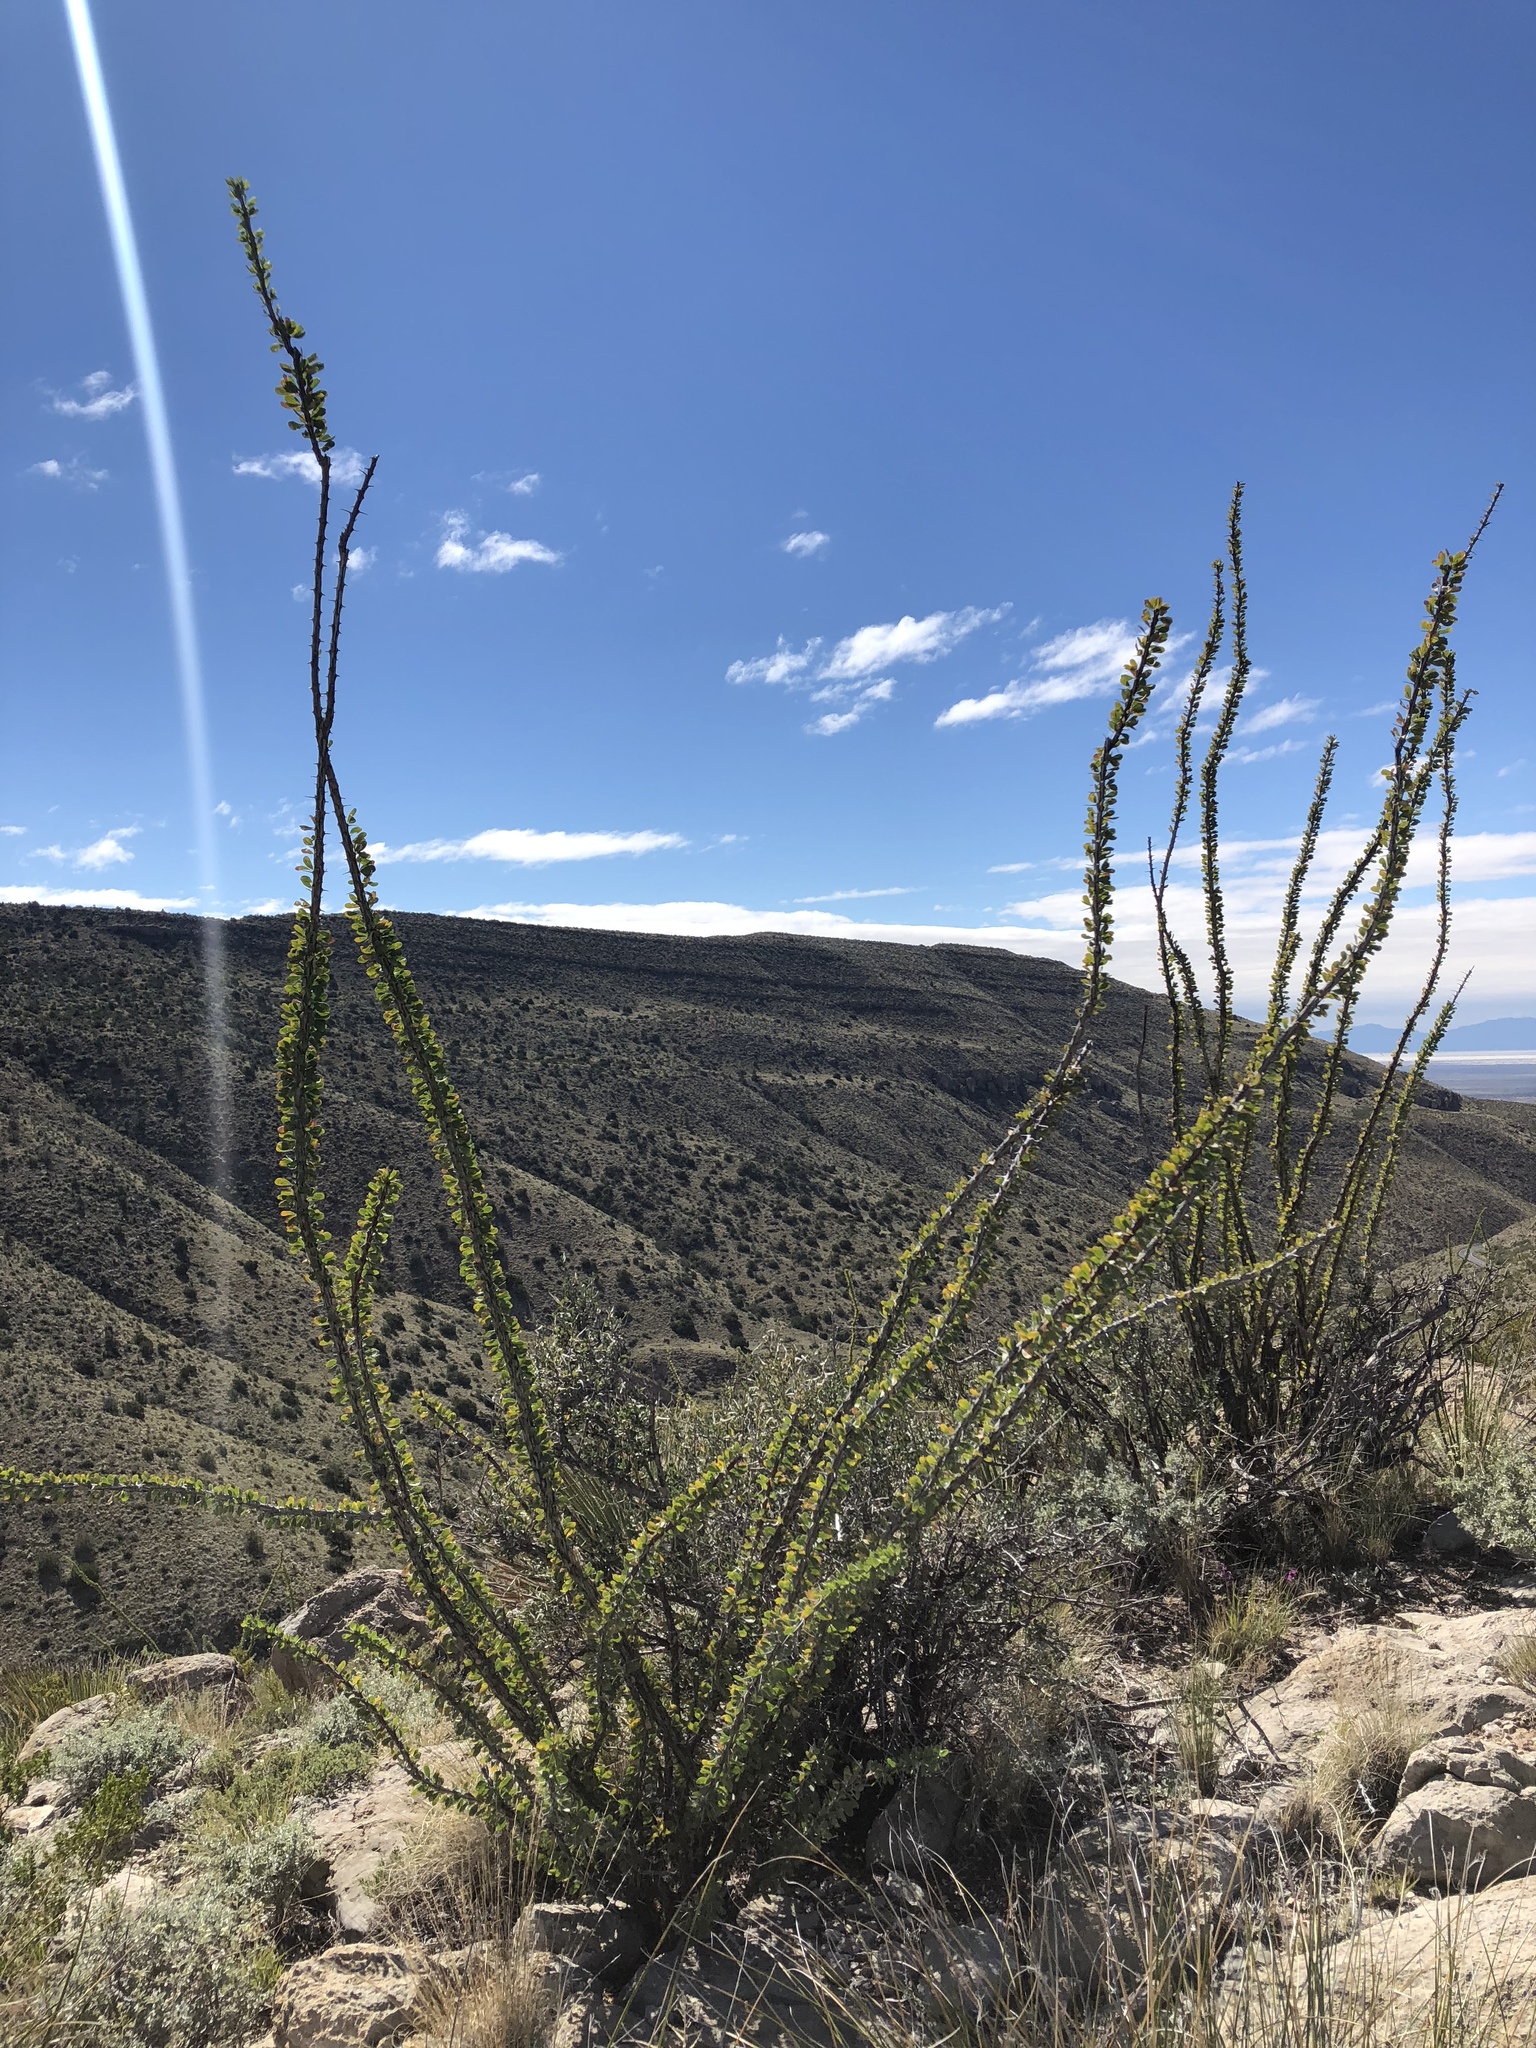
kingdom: Plantae
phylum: Tracheophyta
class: Magnoliopsida
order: Ericales
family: Fouquieriaceae
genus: Fouquieria
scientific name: Fouquieria splendens
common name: Vine-cactus
